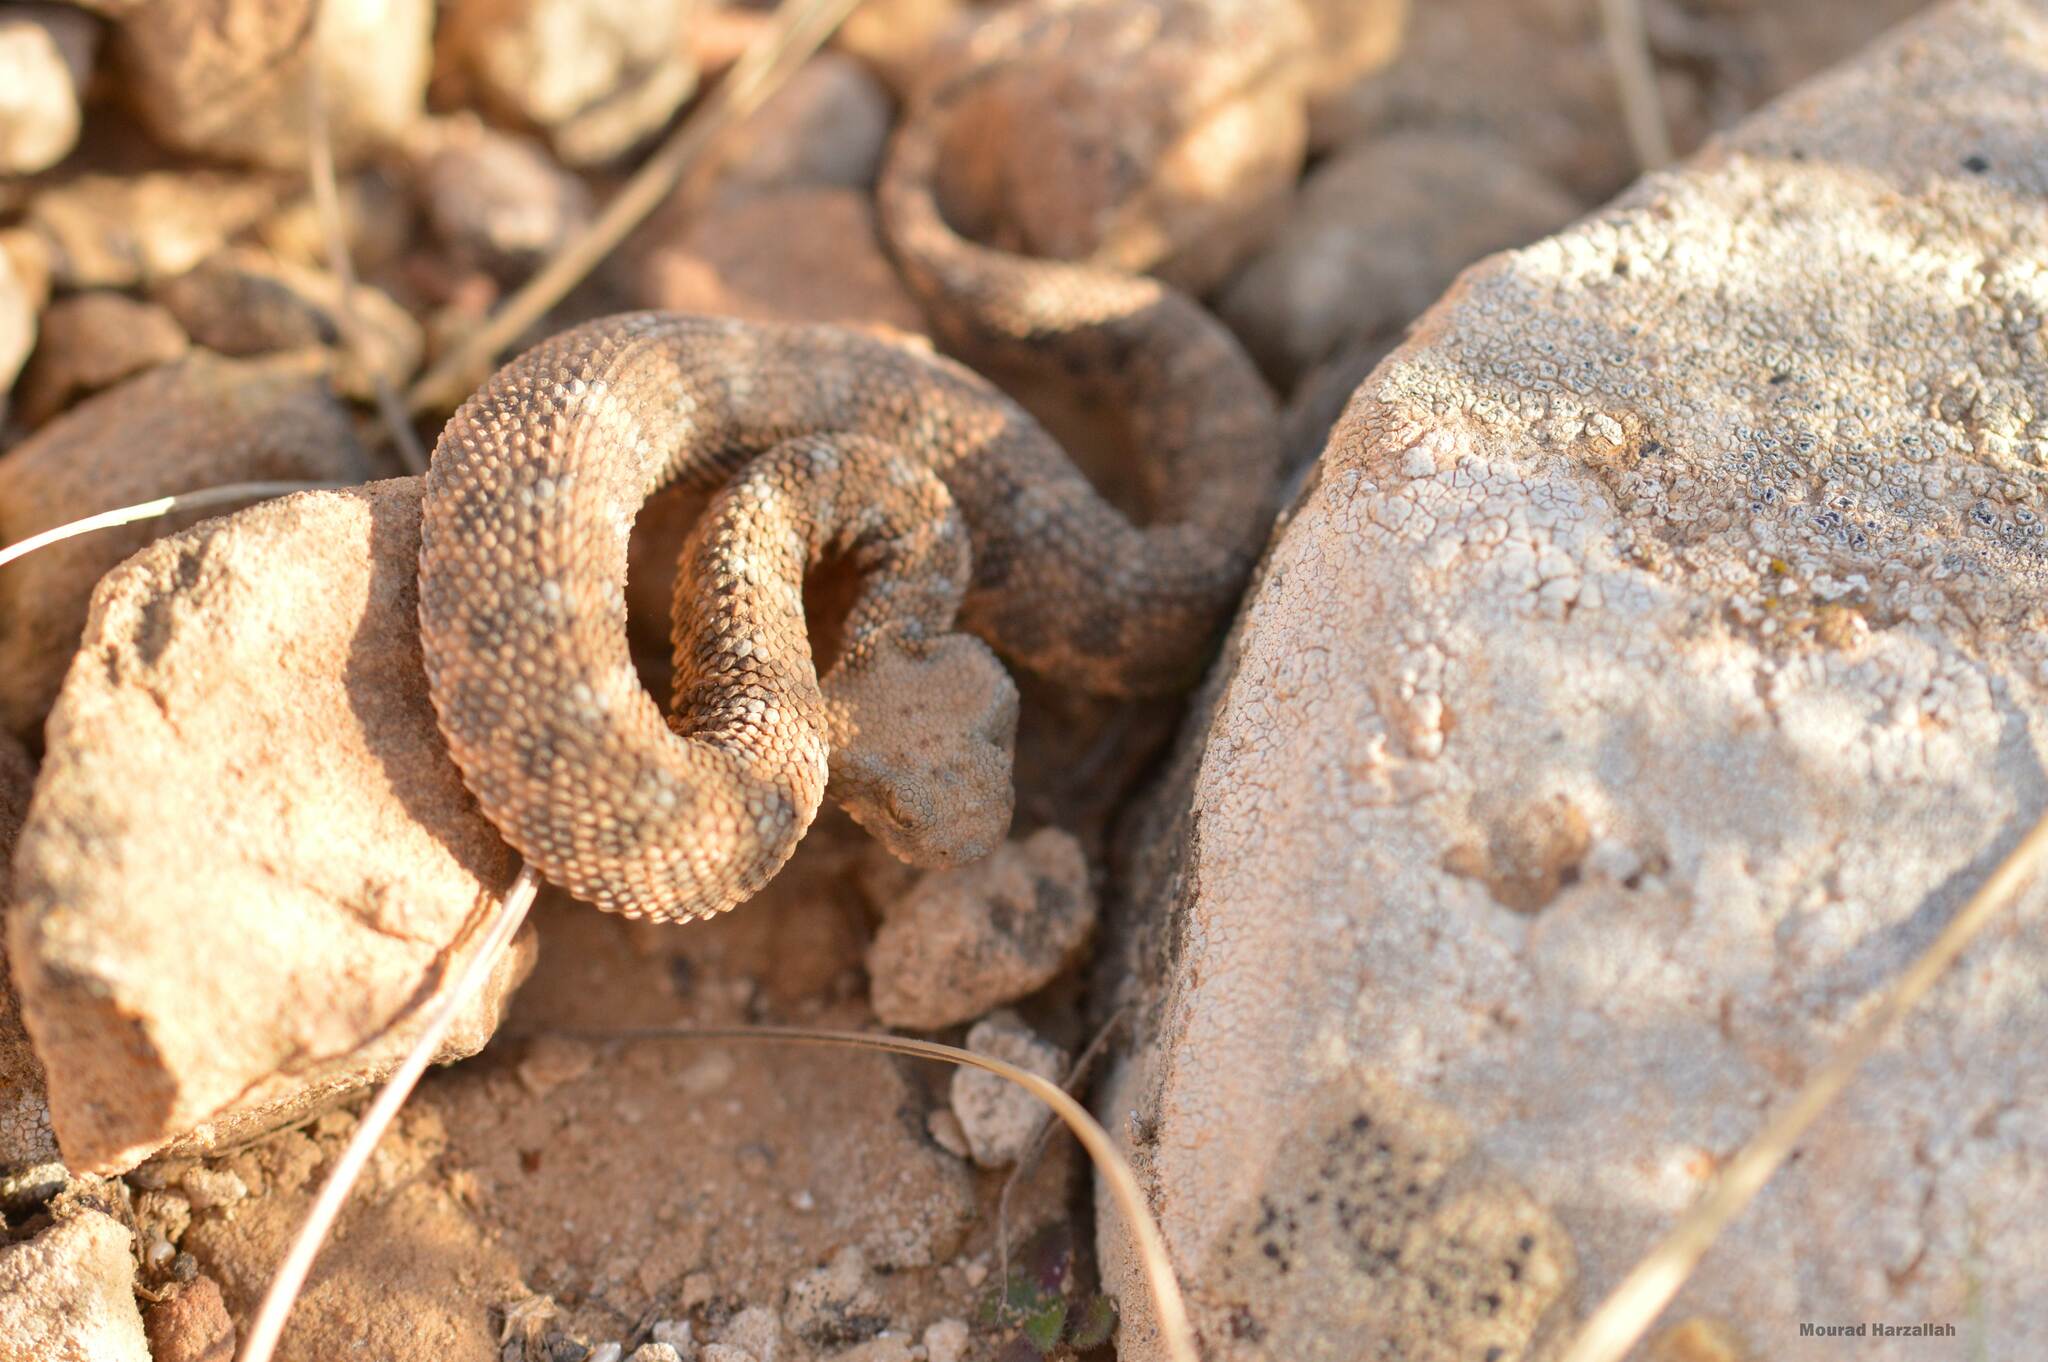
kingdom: Animalia
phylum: Chordata
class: Squamata
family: Viperidae
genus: Cerastes
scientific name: Cerastes cerastes
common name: Desert horned viper
